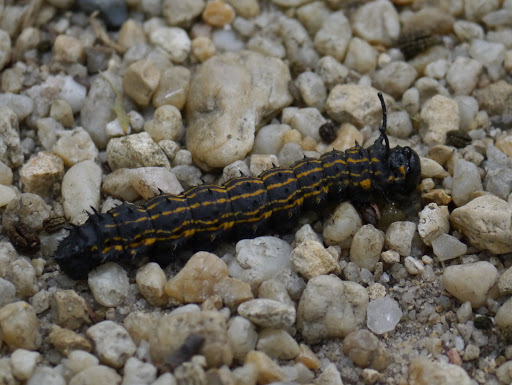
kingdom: Animalia
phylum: Arthropoda
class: Insecta
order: Lepidoptera
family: Saturniidae
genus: Anisota
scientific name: Anisota senatoria
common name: Orange-striped oakworm moth
